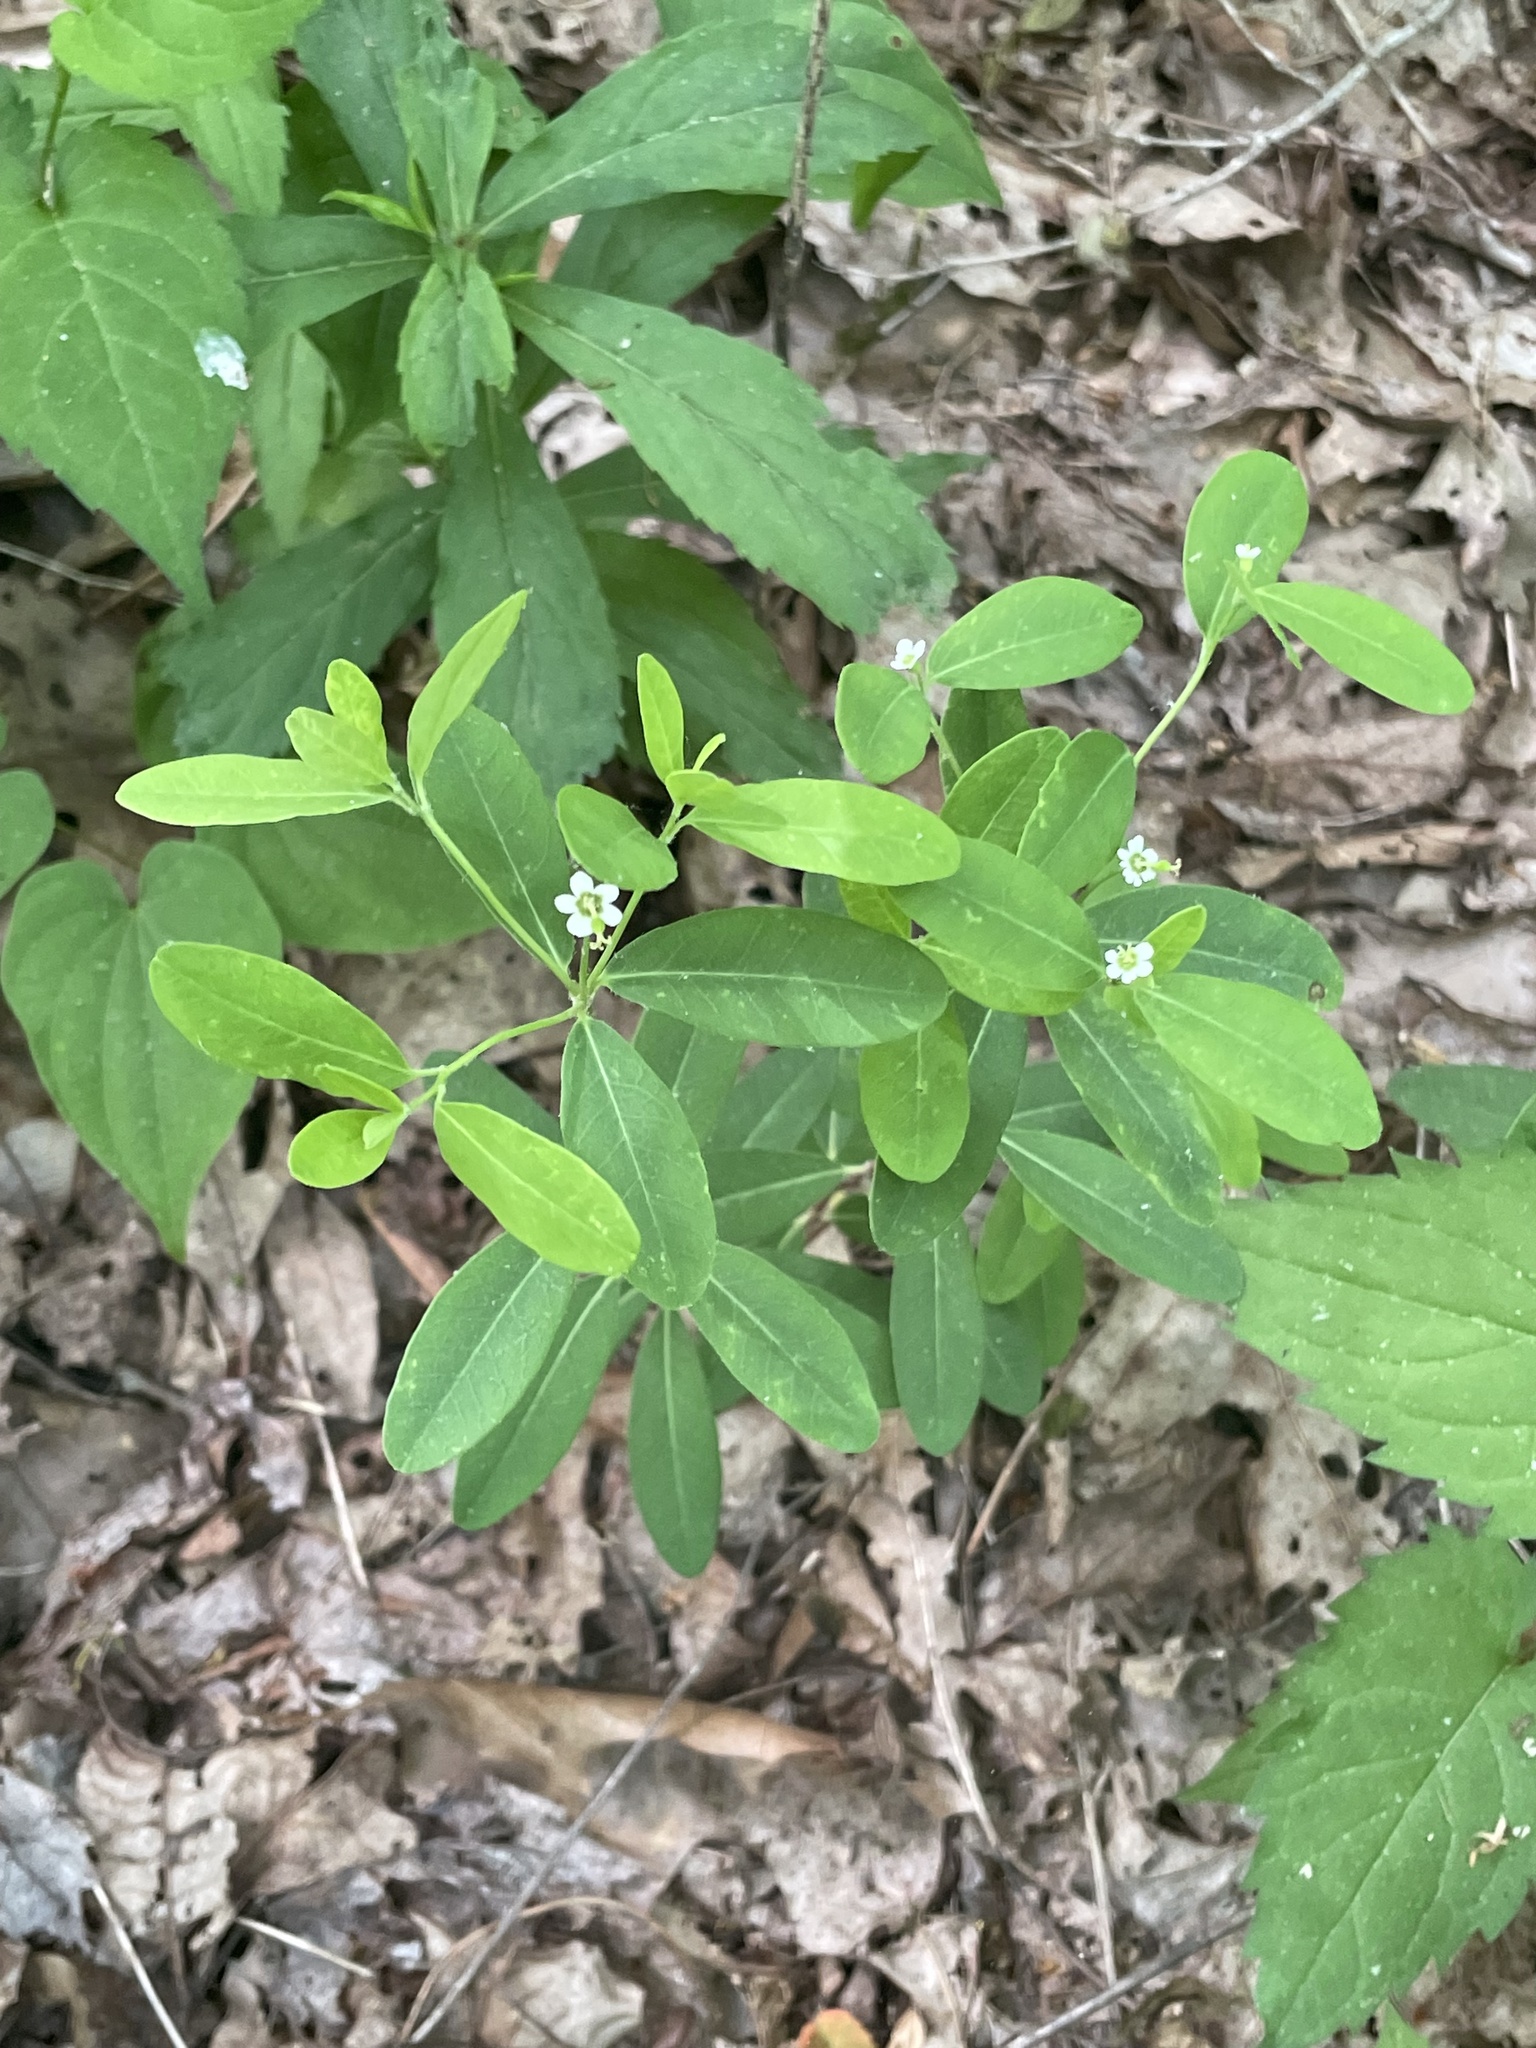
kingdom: Plantae
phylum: Tracheophyta
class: Magnoliopsida
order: Malpighiales
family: Euphorbiaceae
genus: Euphorbia
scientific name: Euphorbia pubentissima
